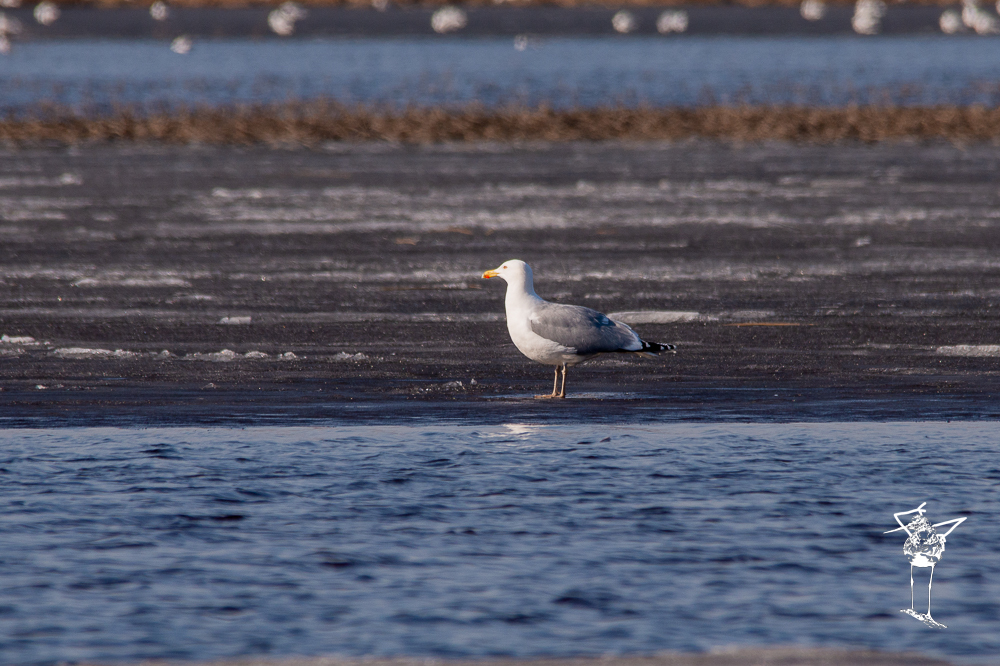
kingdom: Animalia
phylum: Chordata
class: Aves
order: Charadriiformes
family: Laridae
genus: Larus
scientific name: Larus argentatus
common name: Herring gull
